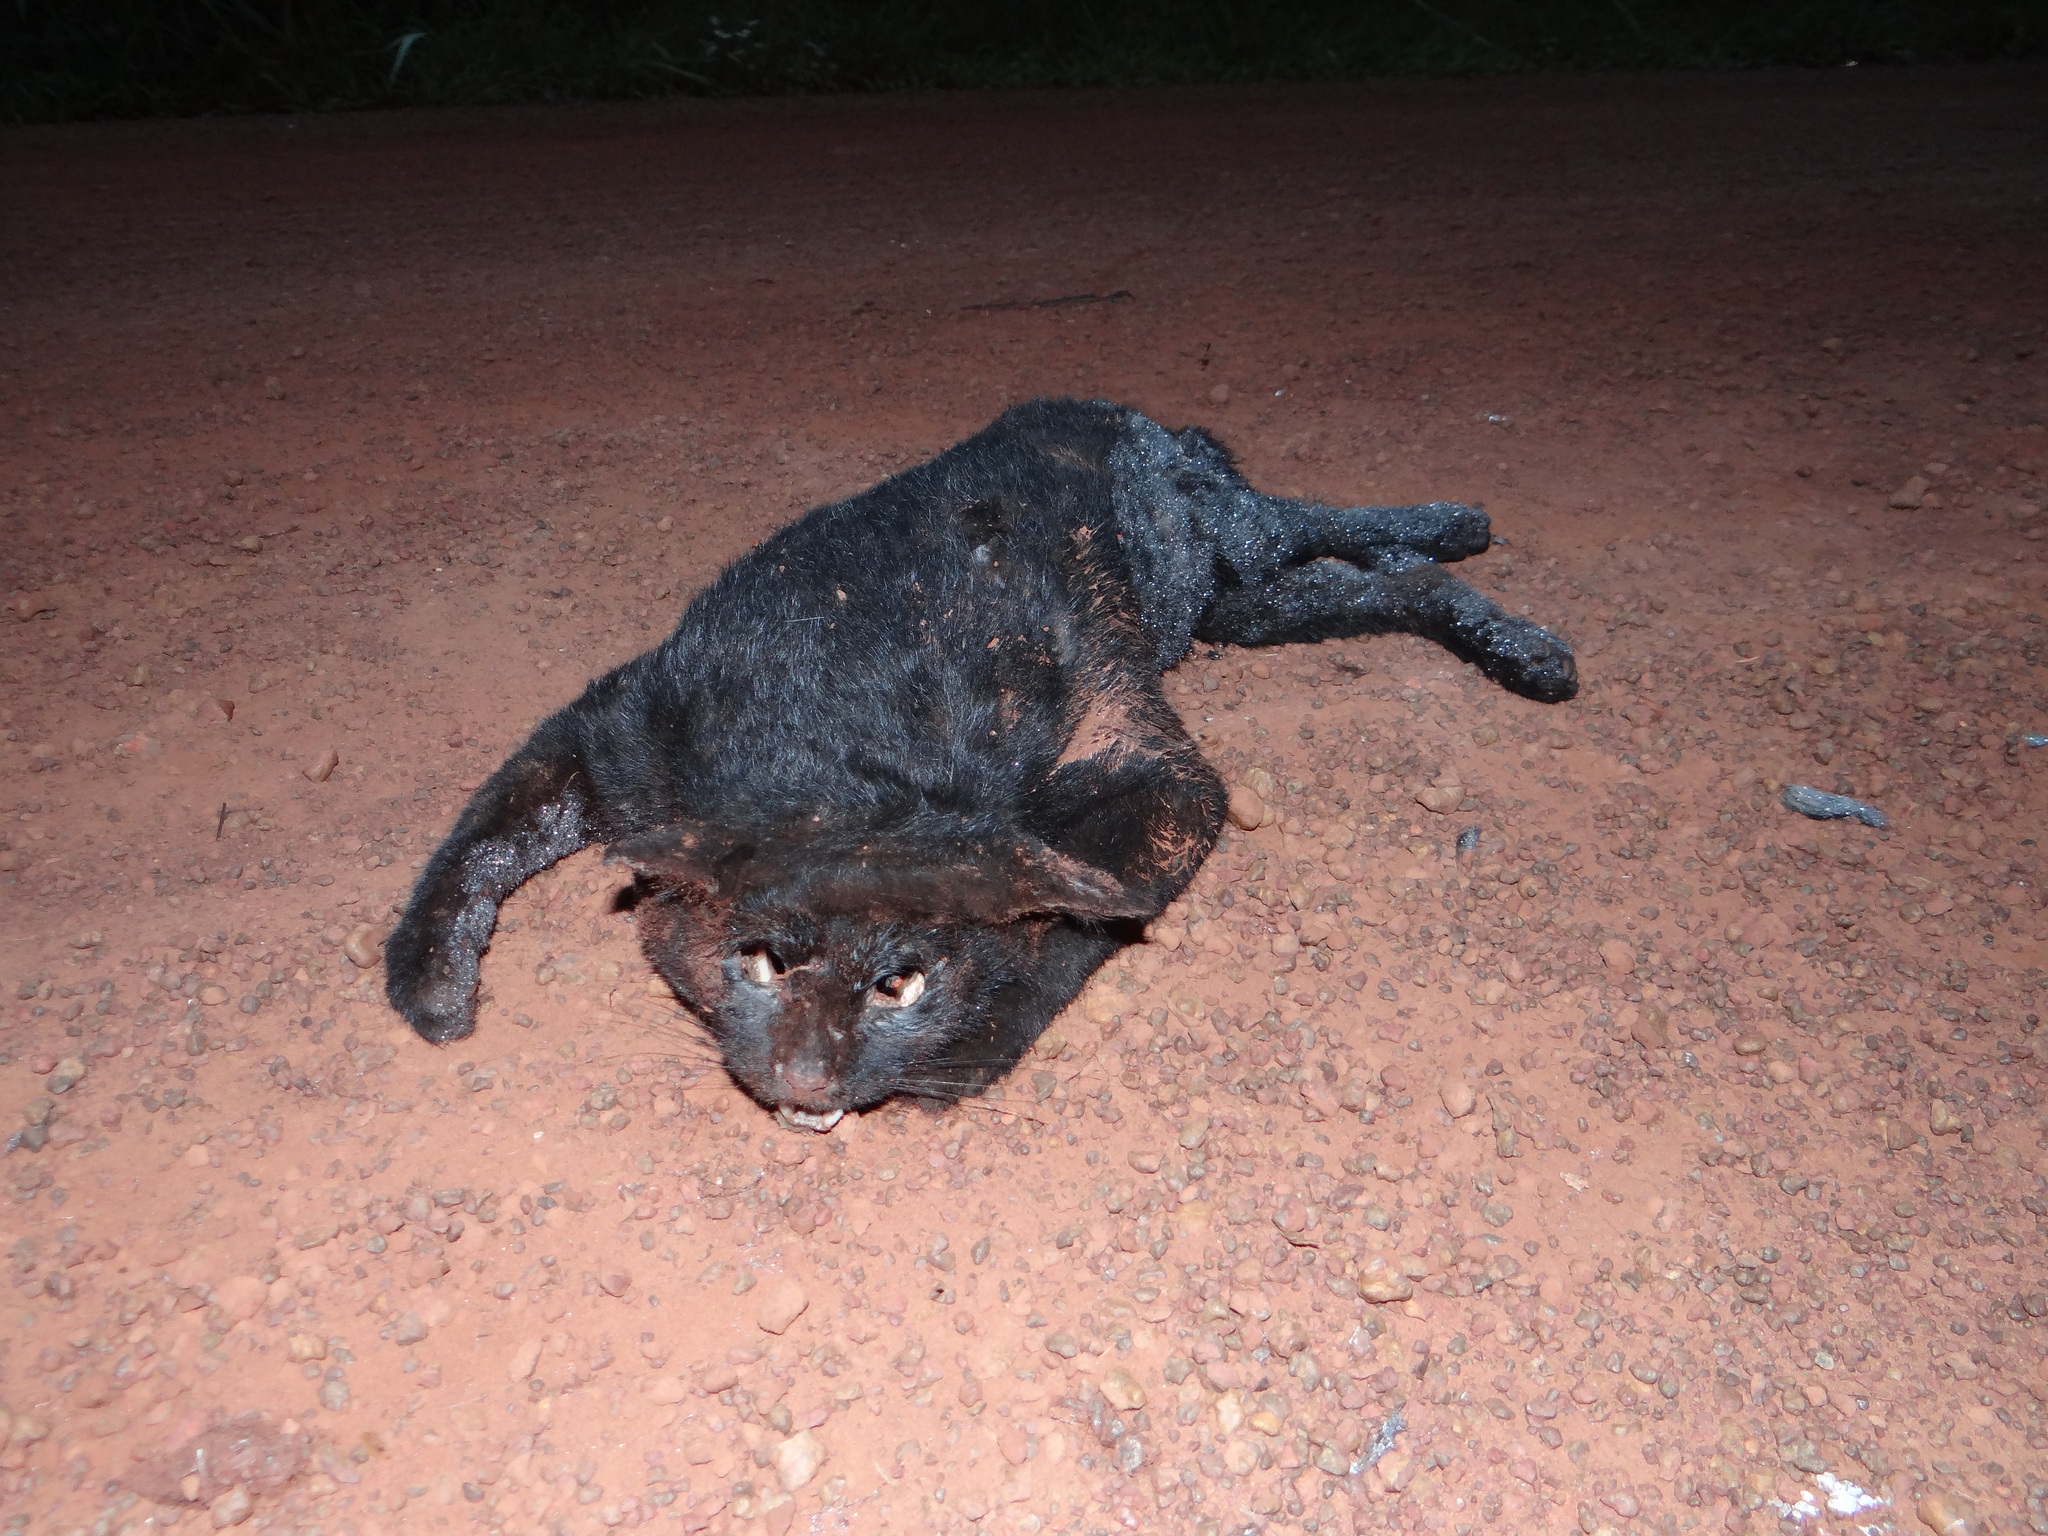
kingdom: Animalia
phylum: Chordata
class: Mammalia
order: Carnivora
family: Felidae
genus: Felis
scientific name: Felis catus
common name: Domestic cat
